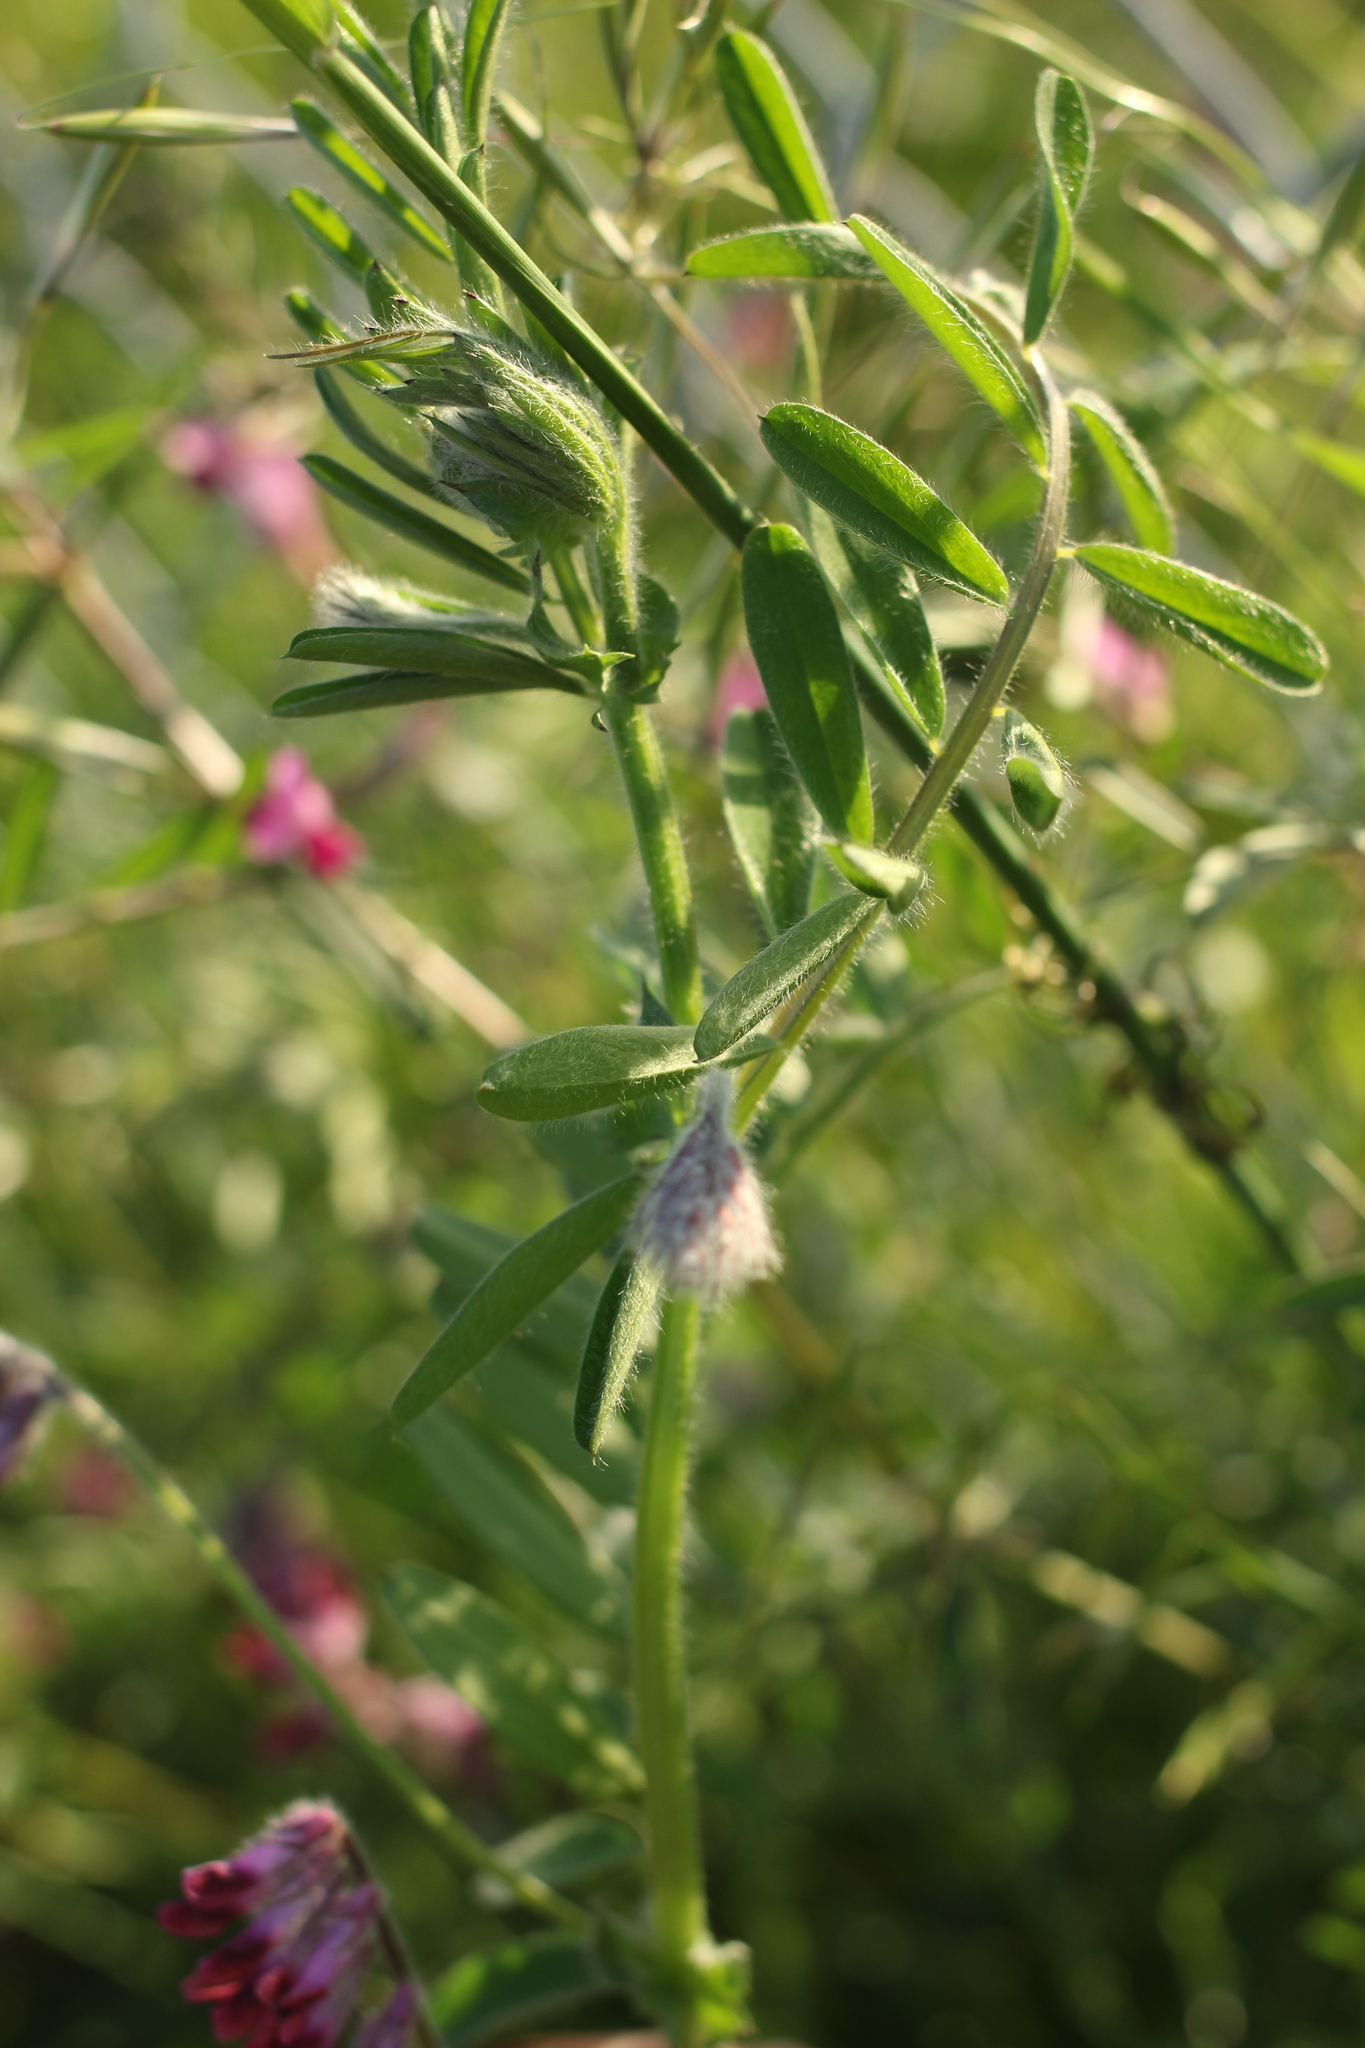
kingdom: Plantae
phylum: Tracheophyta
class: Magnoliopsida
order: Fabales
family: Fabaceae
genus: Vicia
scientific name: Vicia benghalensis
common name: Purple vetch
